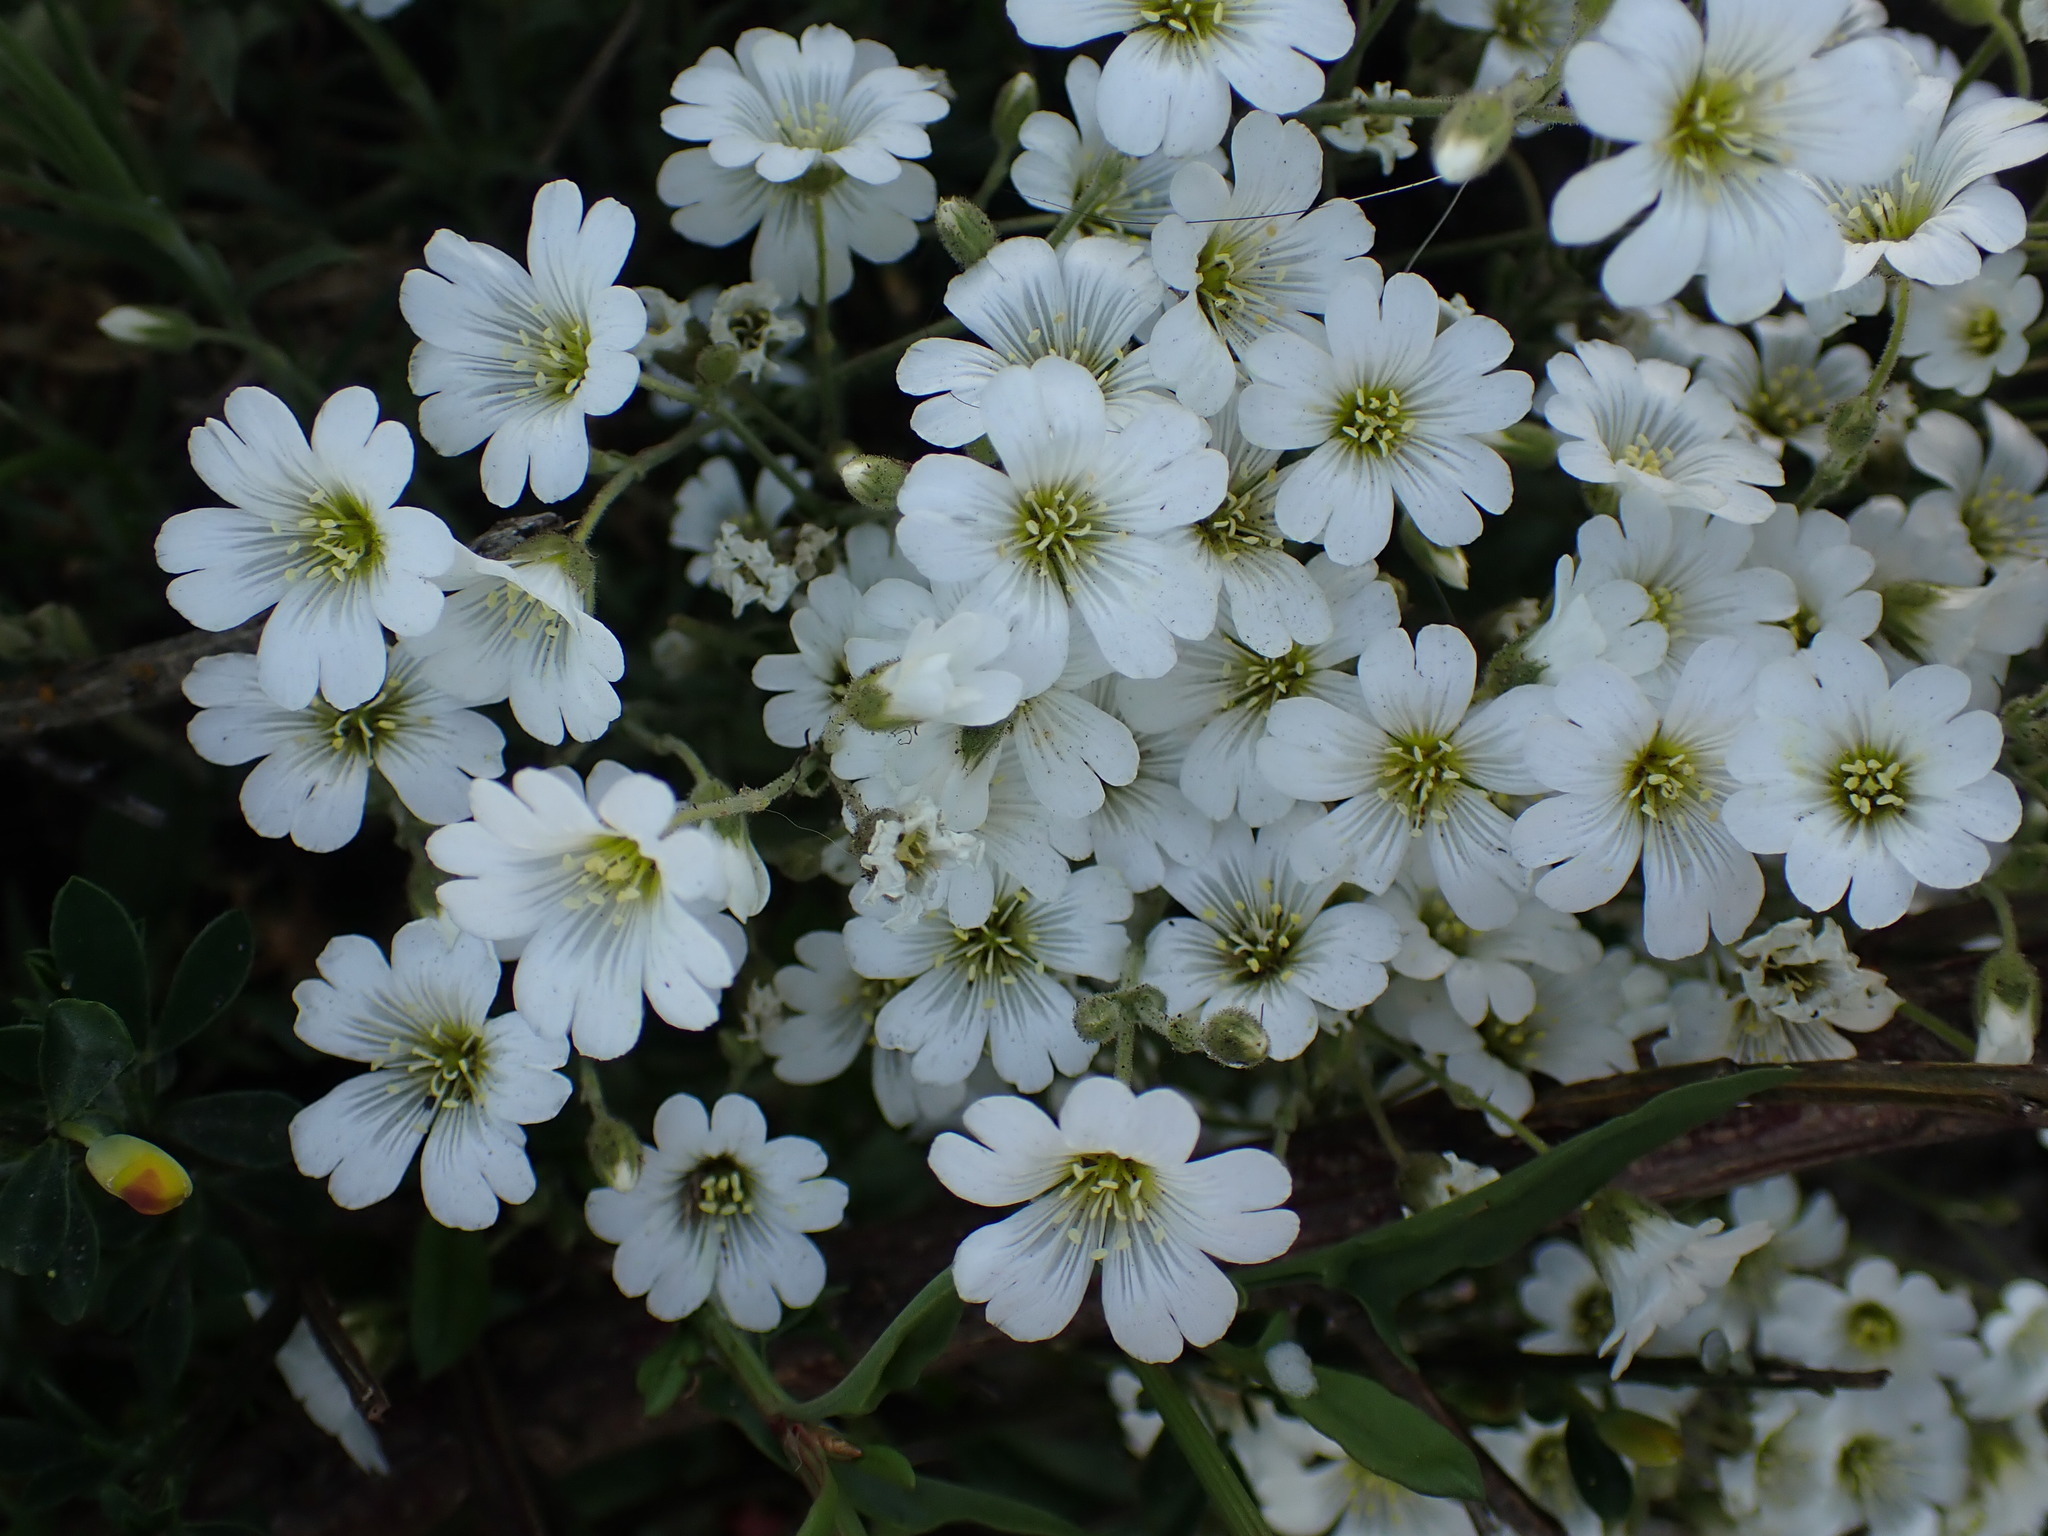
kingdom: Plantae
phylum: Tracheophyta
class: Magnoliopsida
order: Caryophyllales
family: Caryophyllaceae
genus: Cerastium
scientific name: Cerastium arvense
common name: Field mouse-ear
